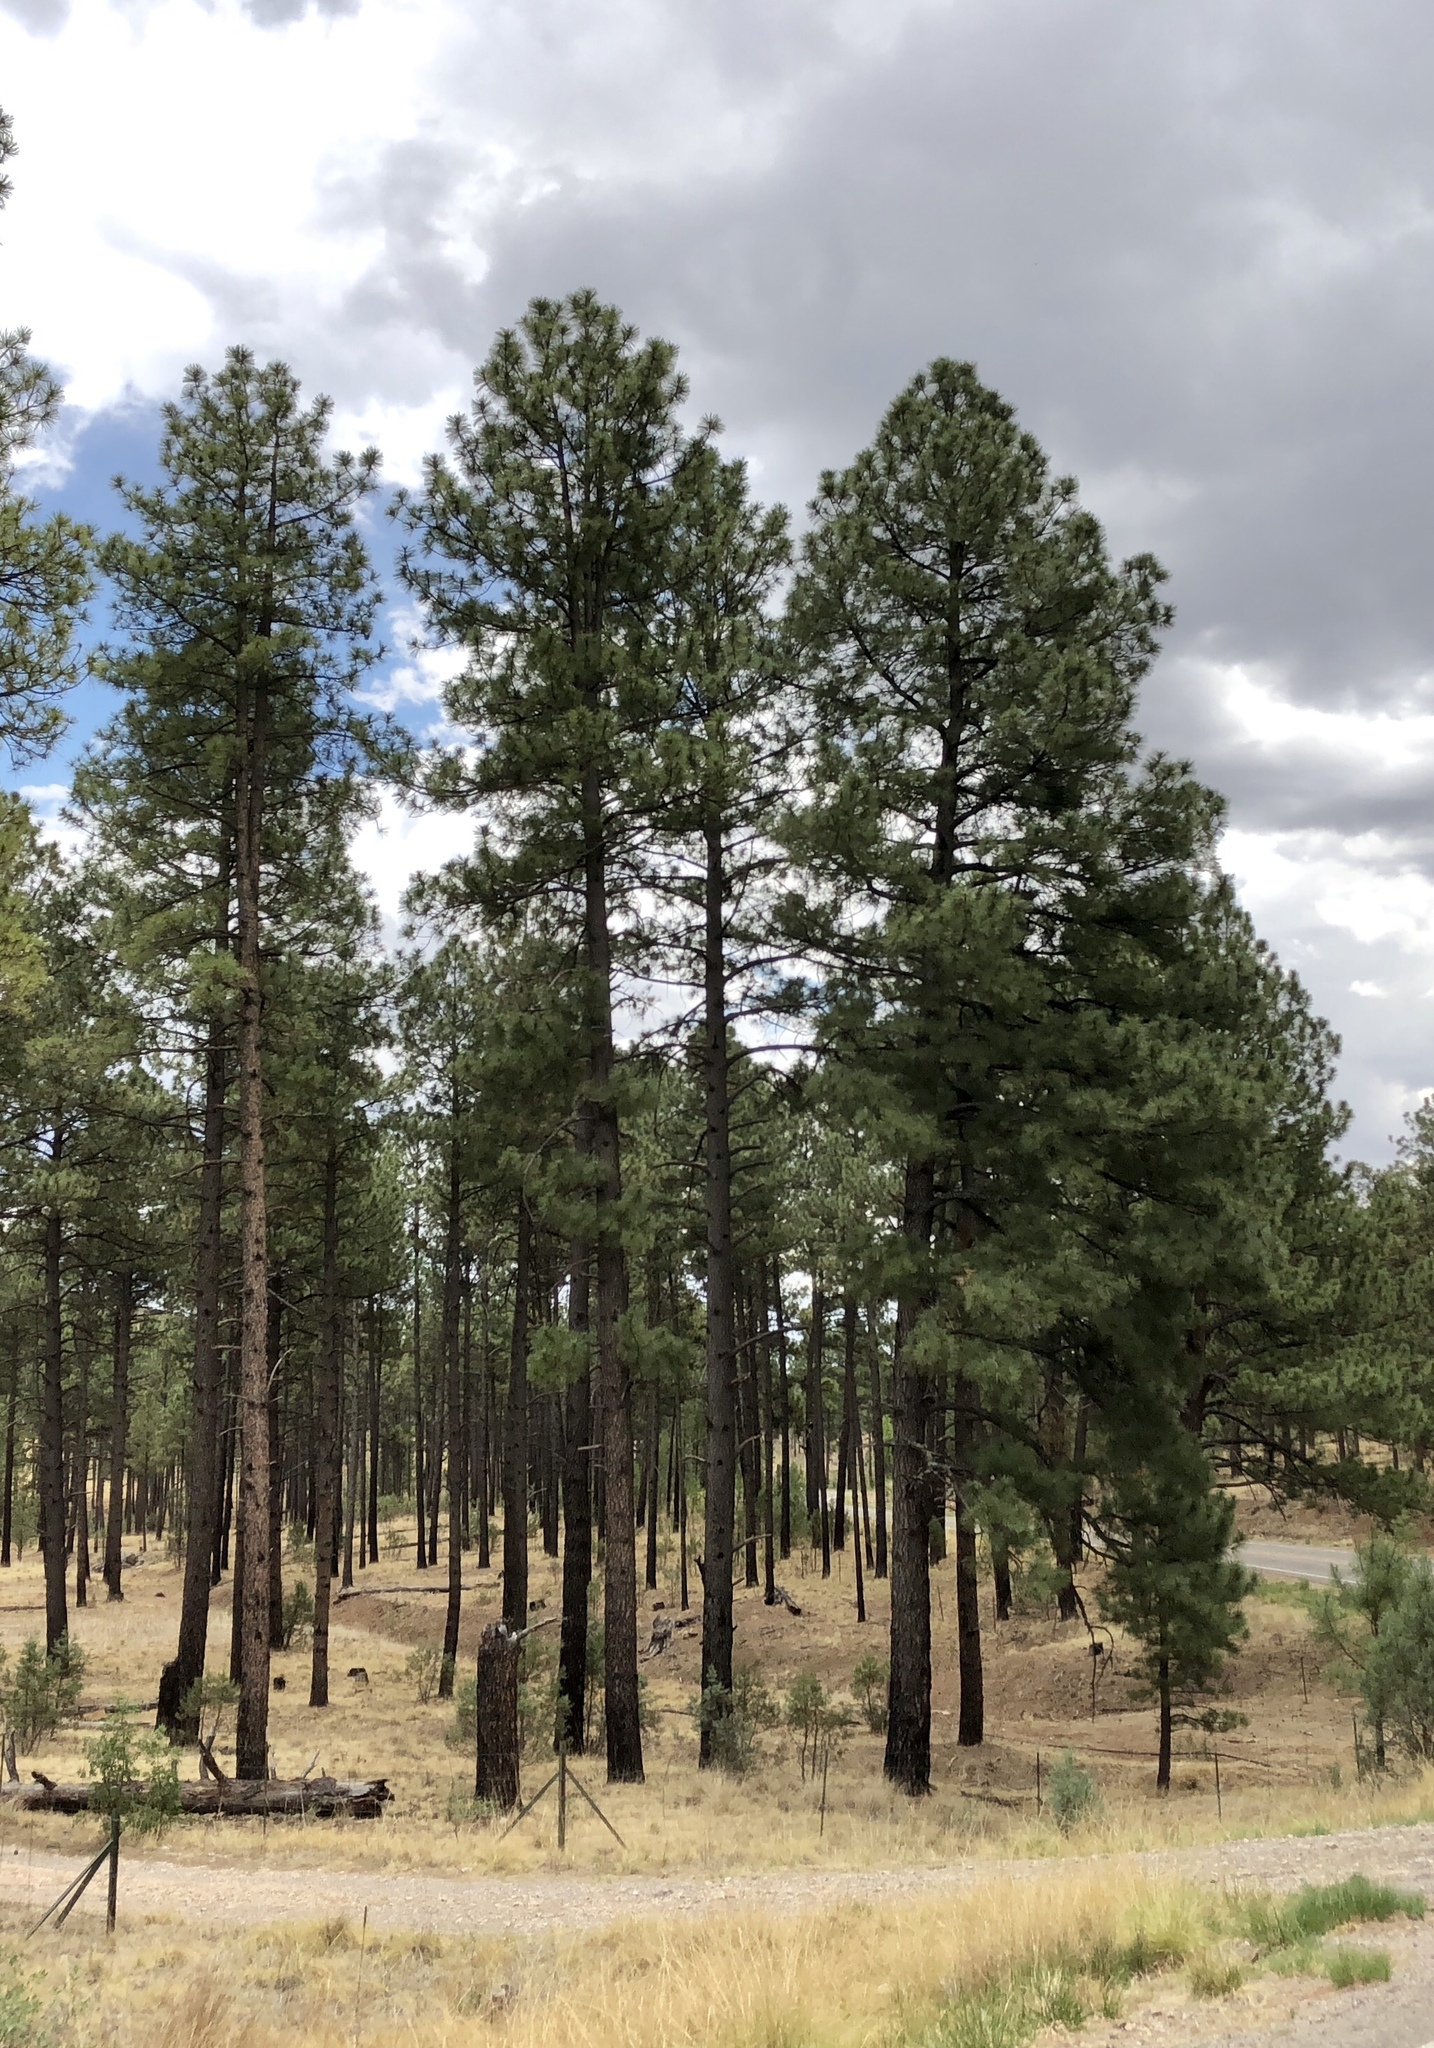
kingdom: Plantae
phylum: Tracheophyta
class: Pinopsida
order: Pinales
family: Pinaceae
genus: Pinus
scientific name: Pinus ponderosa
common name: Western yellow-pine
